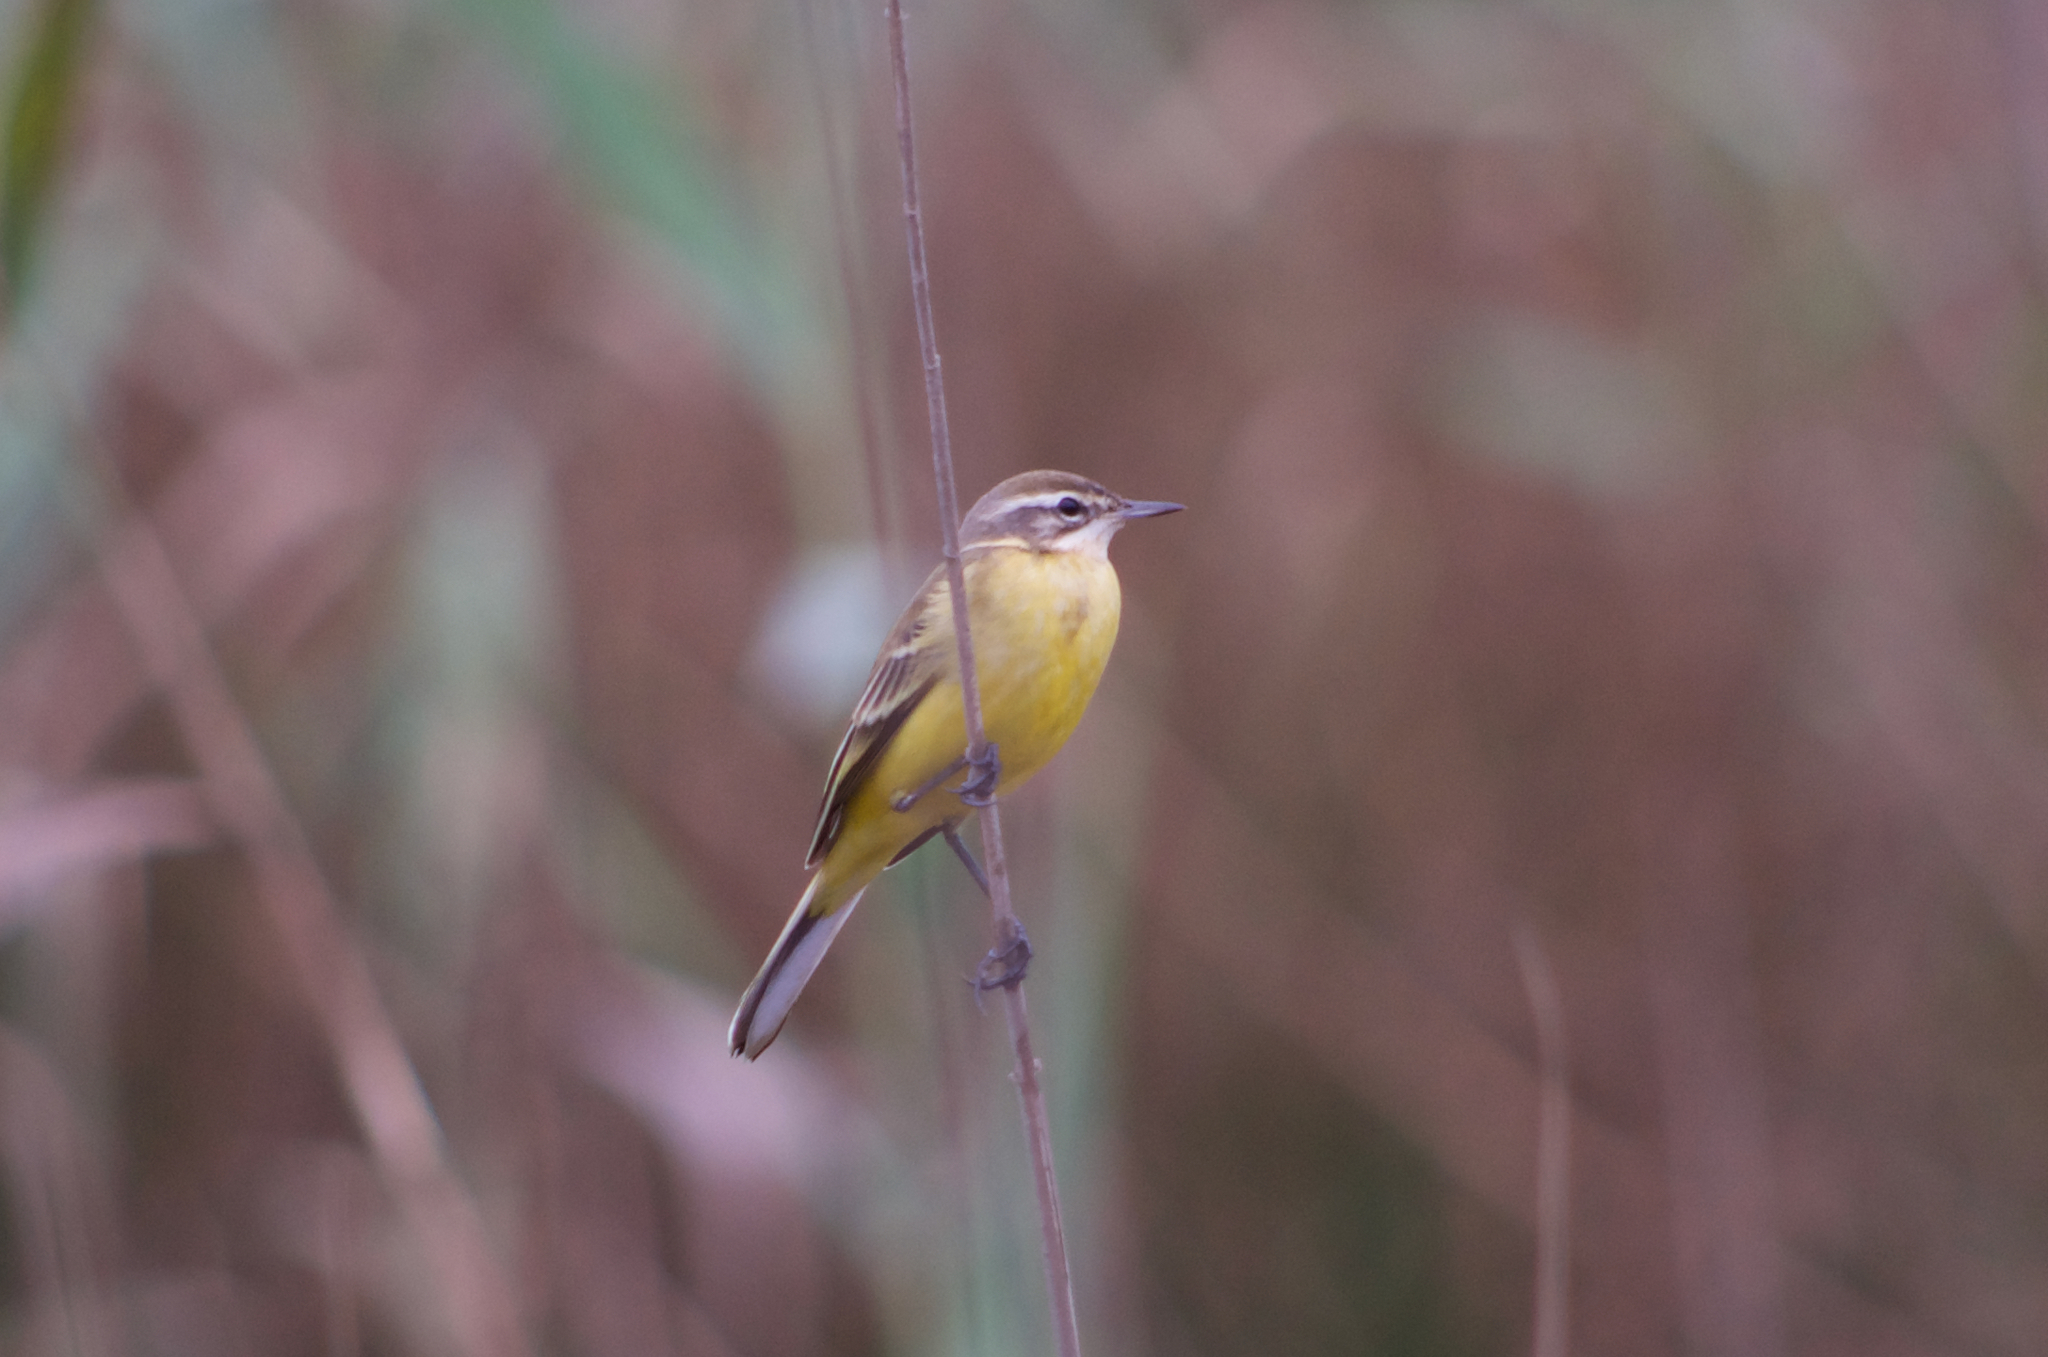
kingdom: Animalia
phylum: Chordata
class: Aves
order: Passeriformes
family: Motacillidae
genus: Motacilla
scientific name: Motacilla flava
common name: Western yellow wagtail
